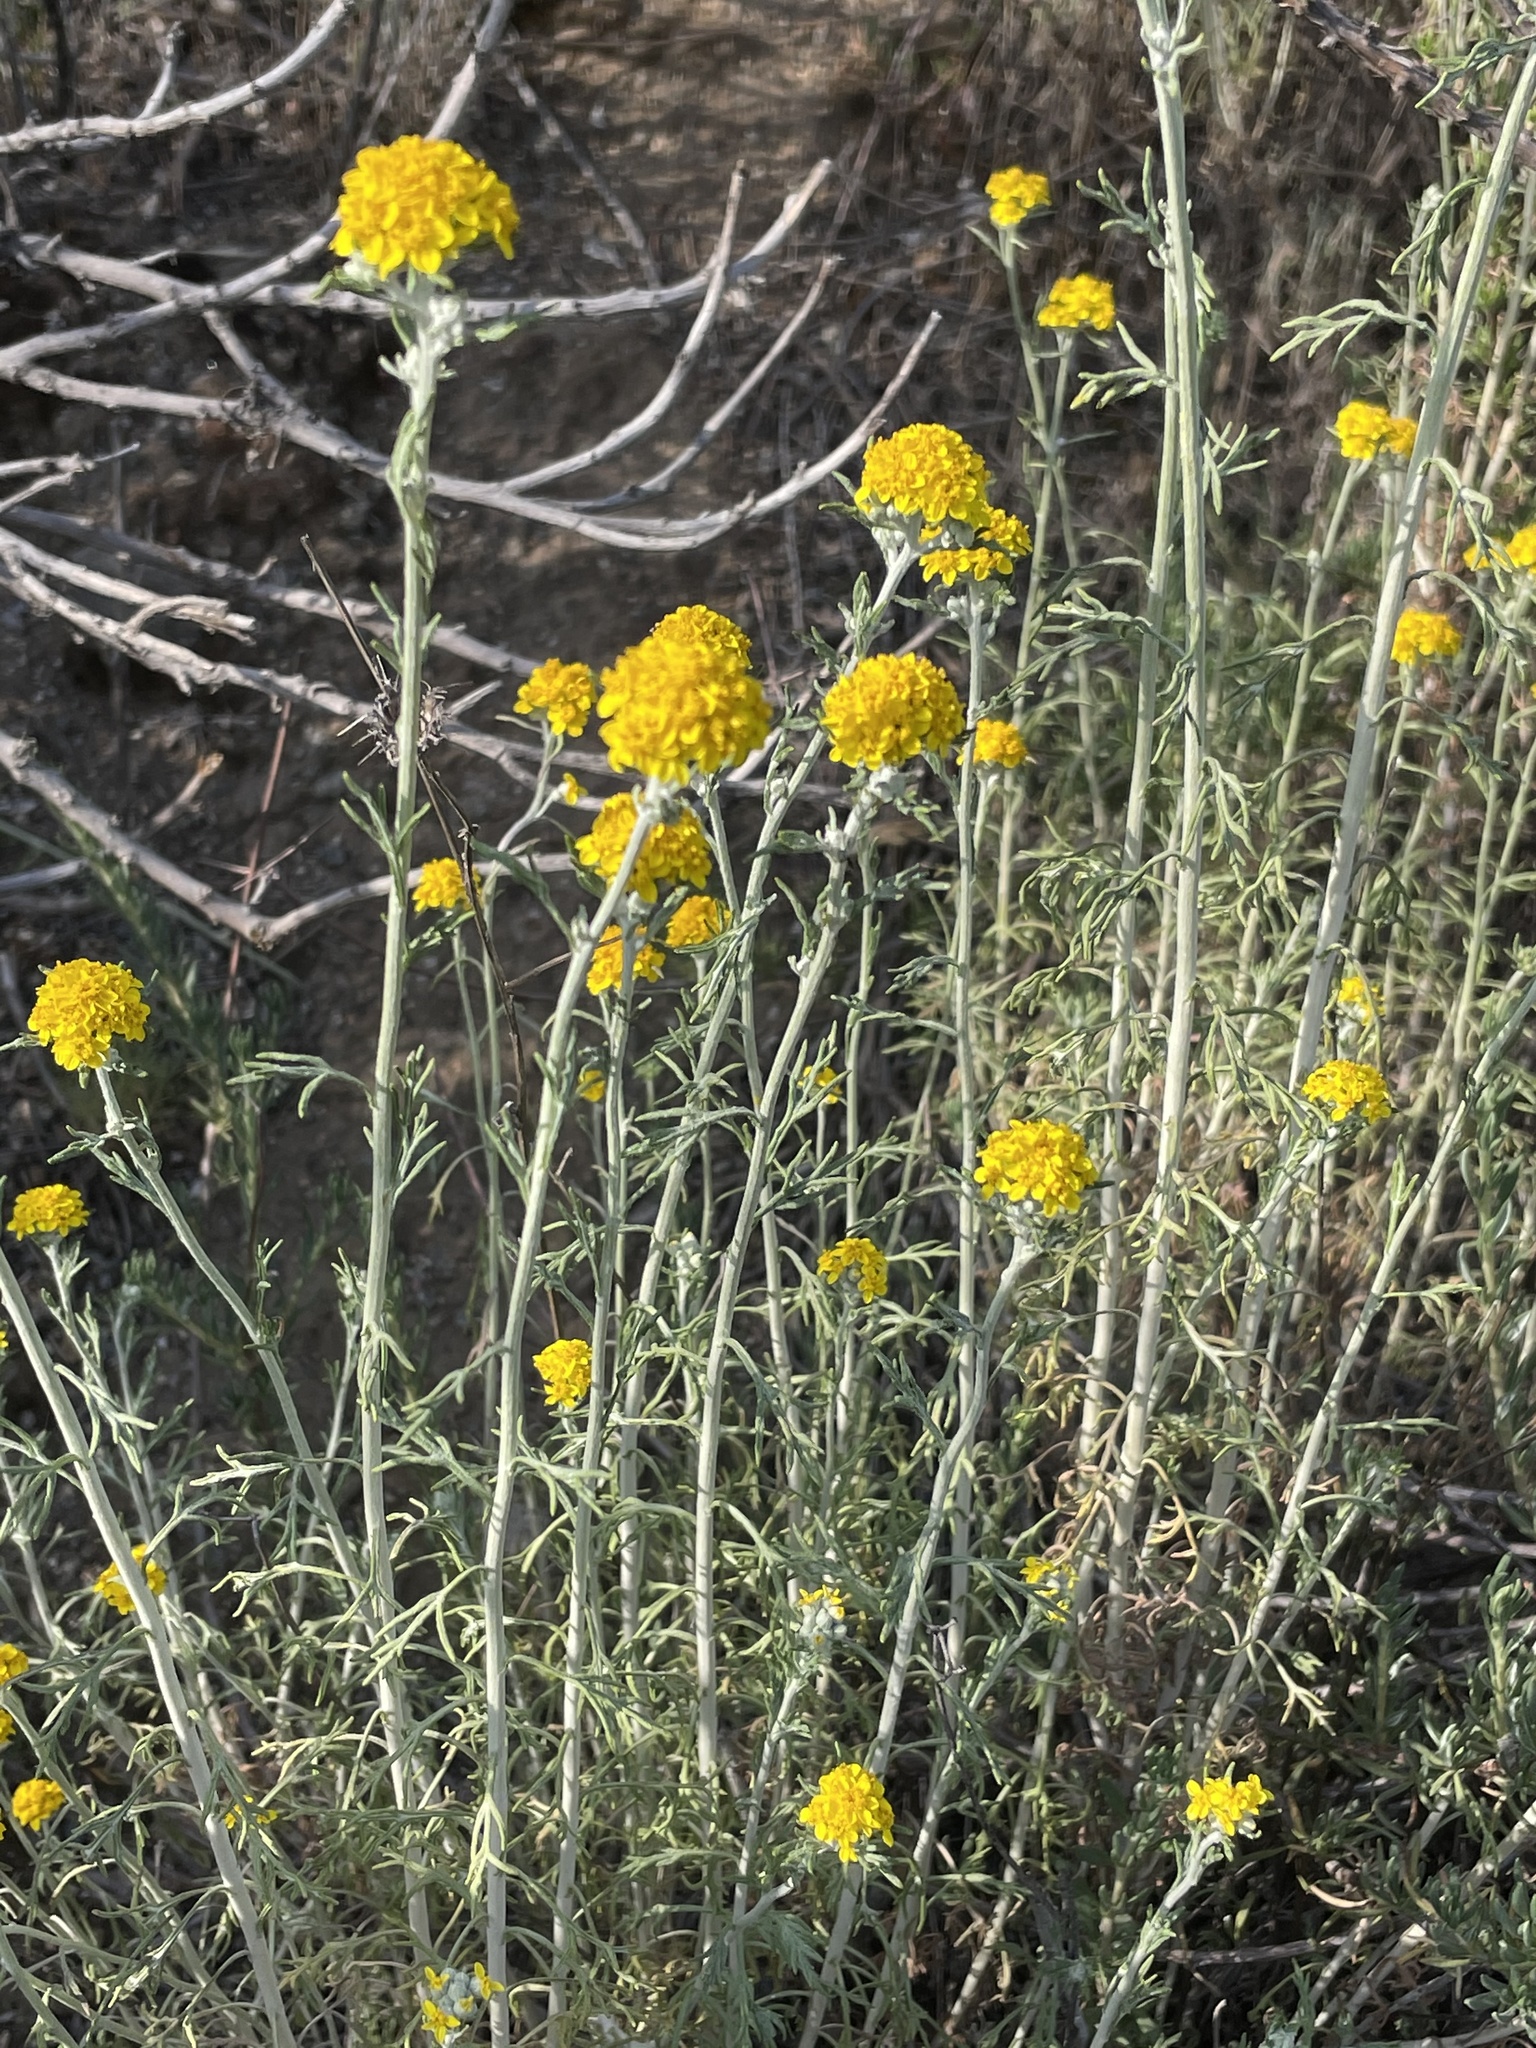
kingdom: Plantae
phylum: Tracheophyta
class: Magnoliopsida
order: Asterales
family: Asteraceae
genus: Eriophyllum
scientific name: Eriophyllum confertiflorum
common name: Golden-yarrow
